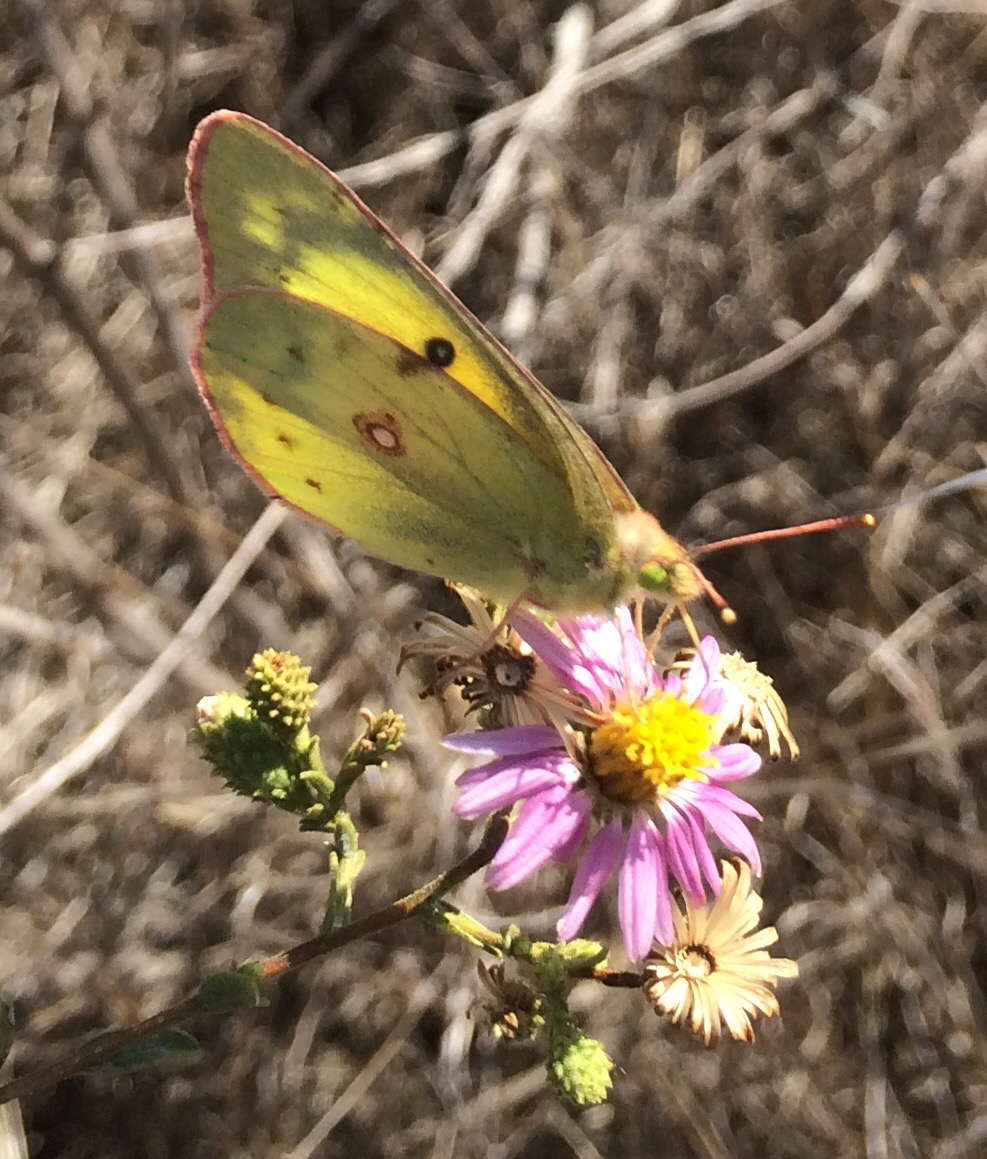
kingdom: Animalia
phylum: Arthropoda
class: Insecta
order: Lepidoptera
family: Pieridae
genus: Colias
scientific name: Colias
